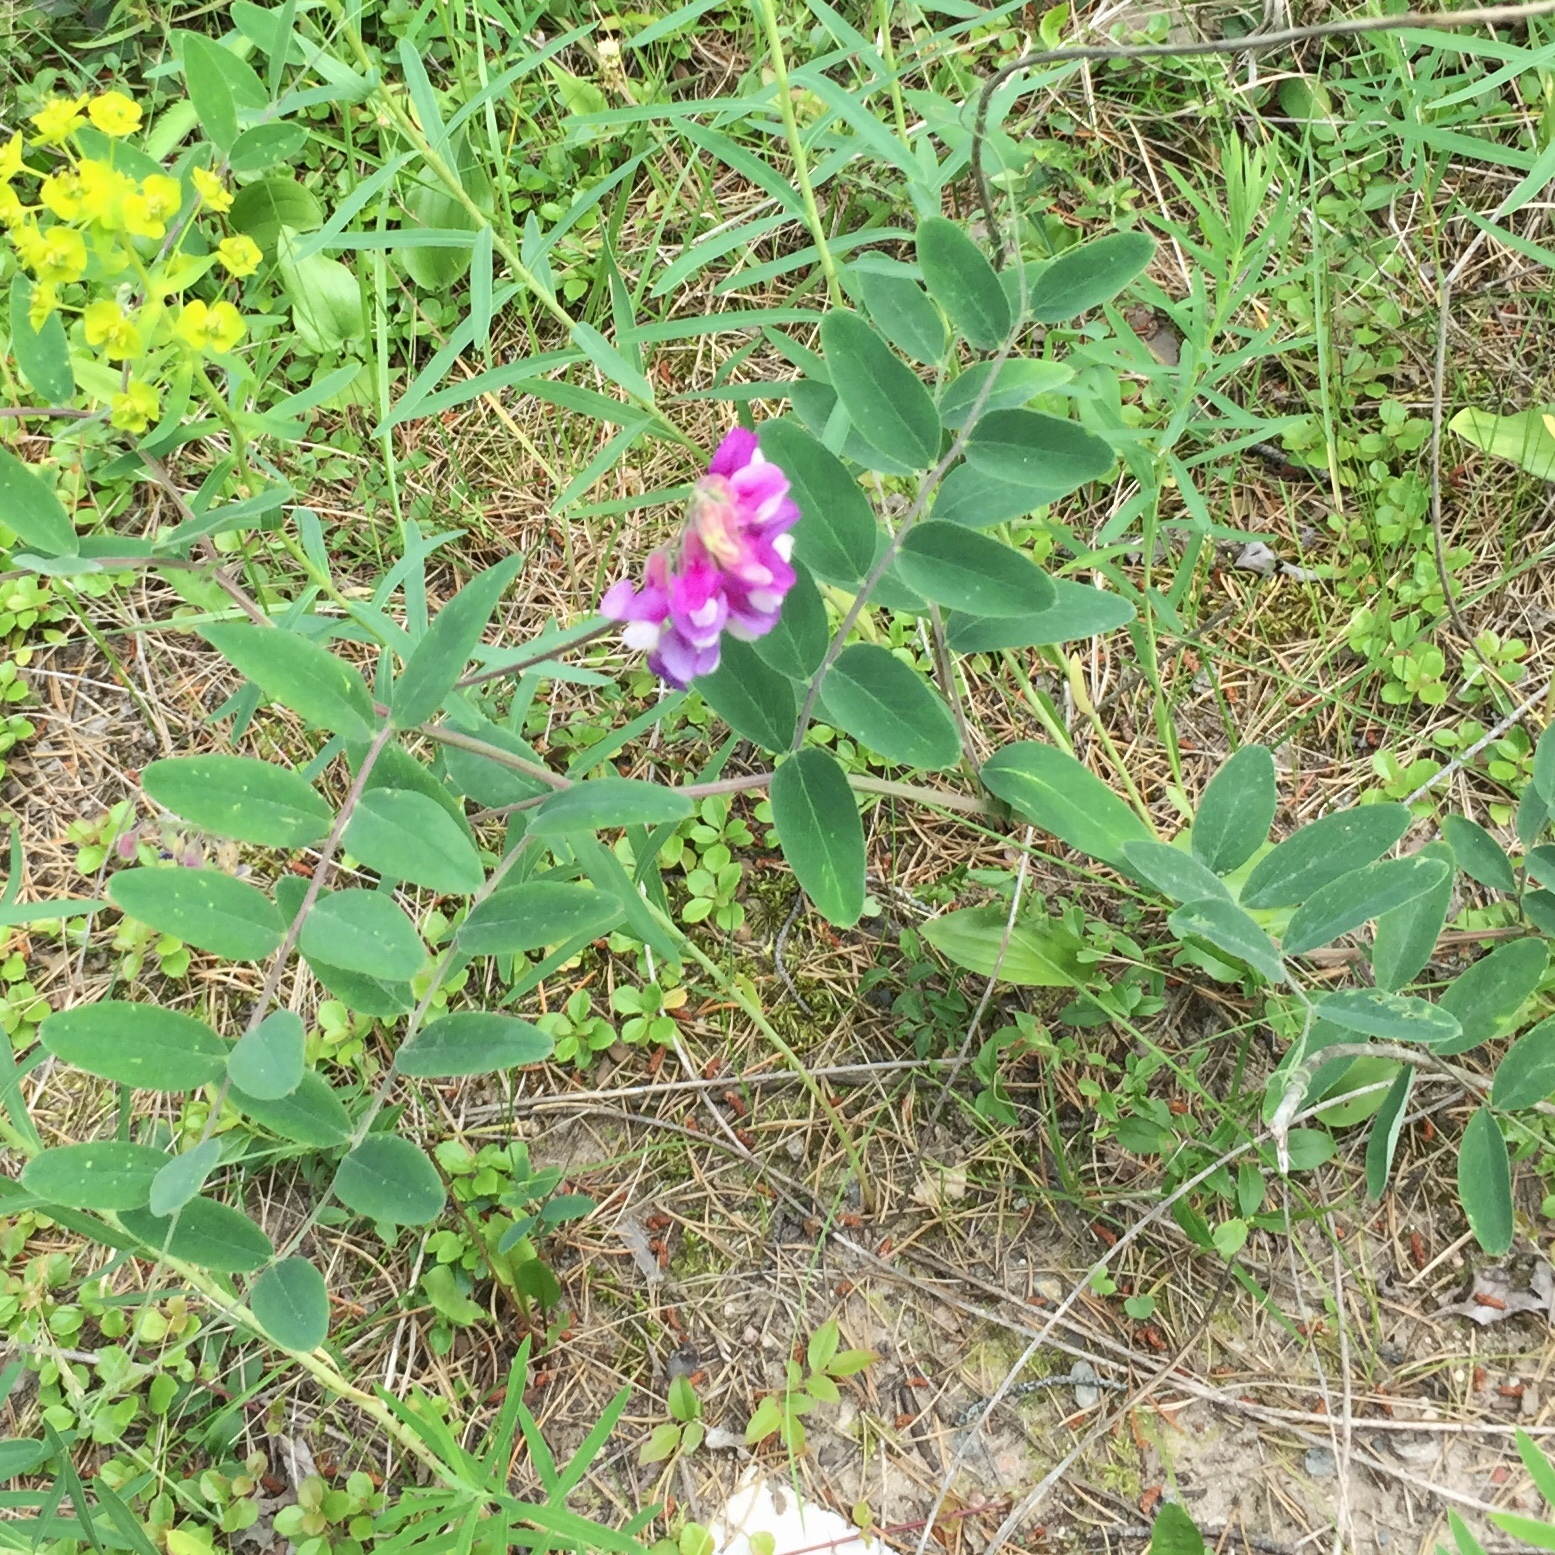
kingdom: Plantae
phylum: Tracheophyta
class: Magnoliopsida
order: Fabales
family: Fabaceae
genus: Lathyrus
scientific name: Lathyrus venosus
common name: Forest-pea
